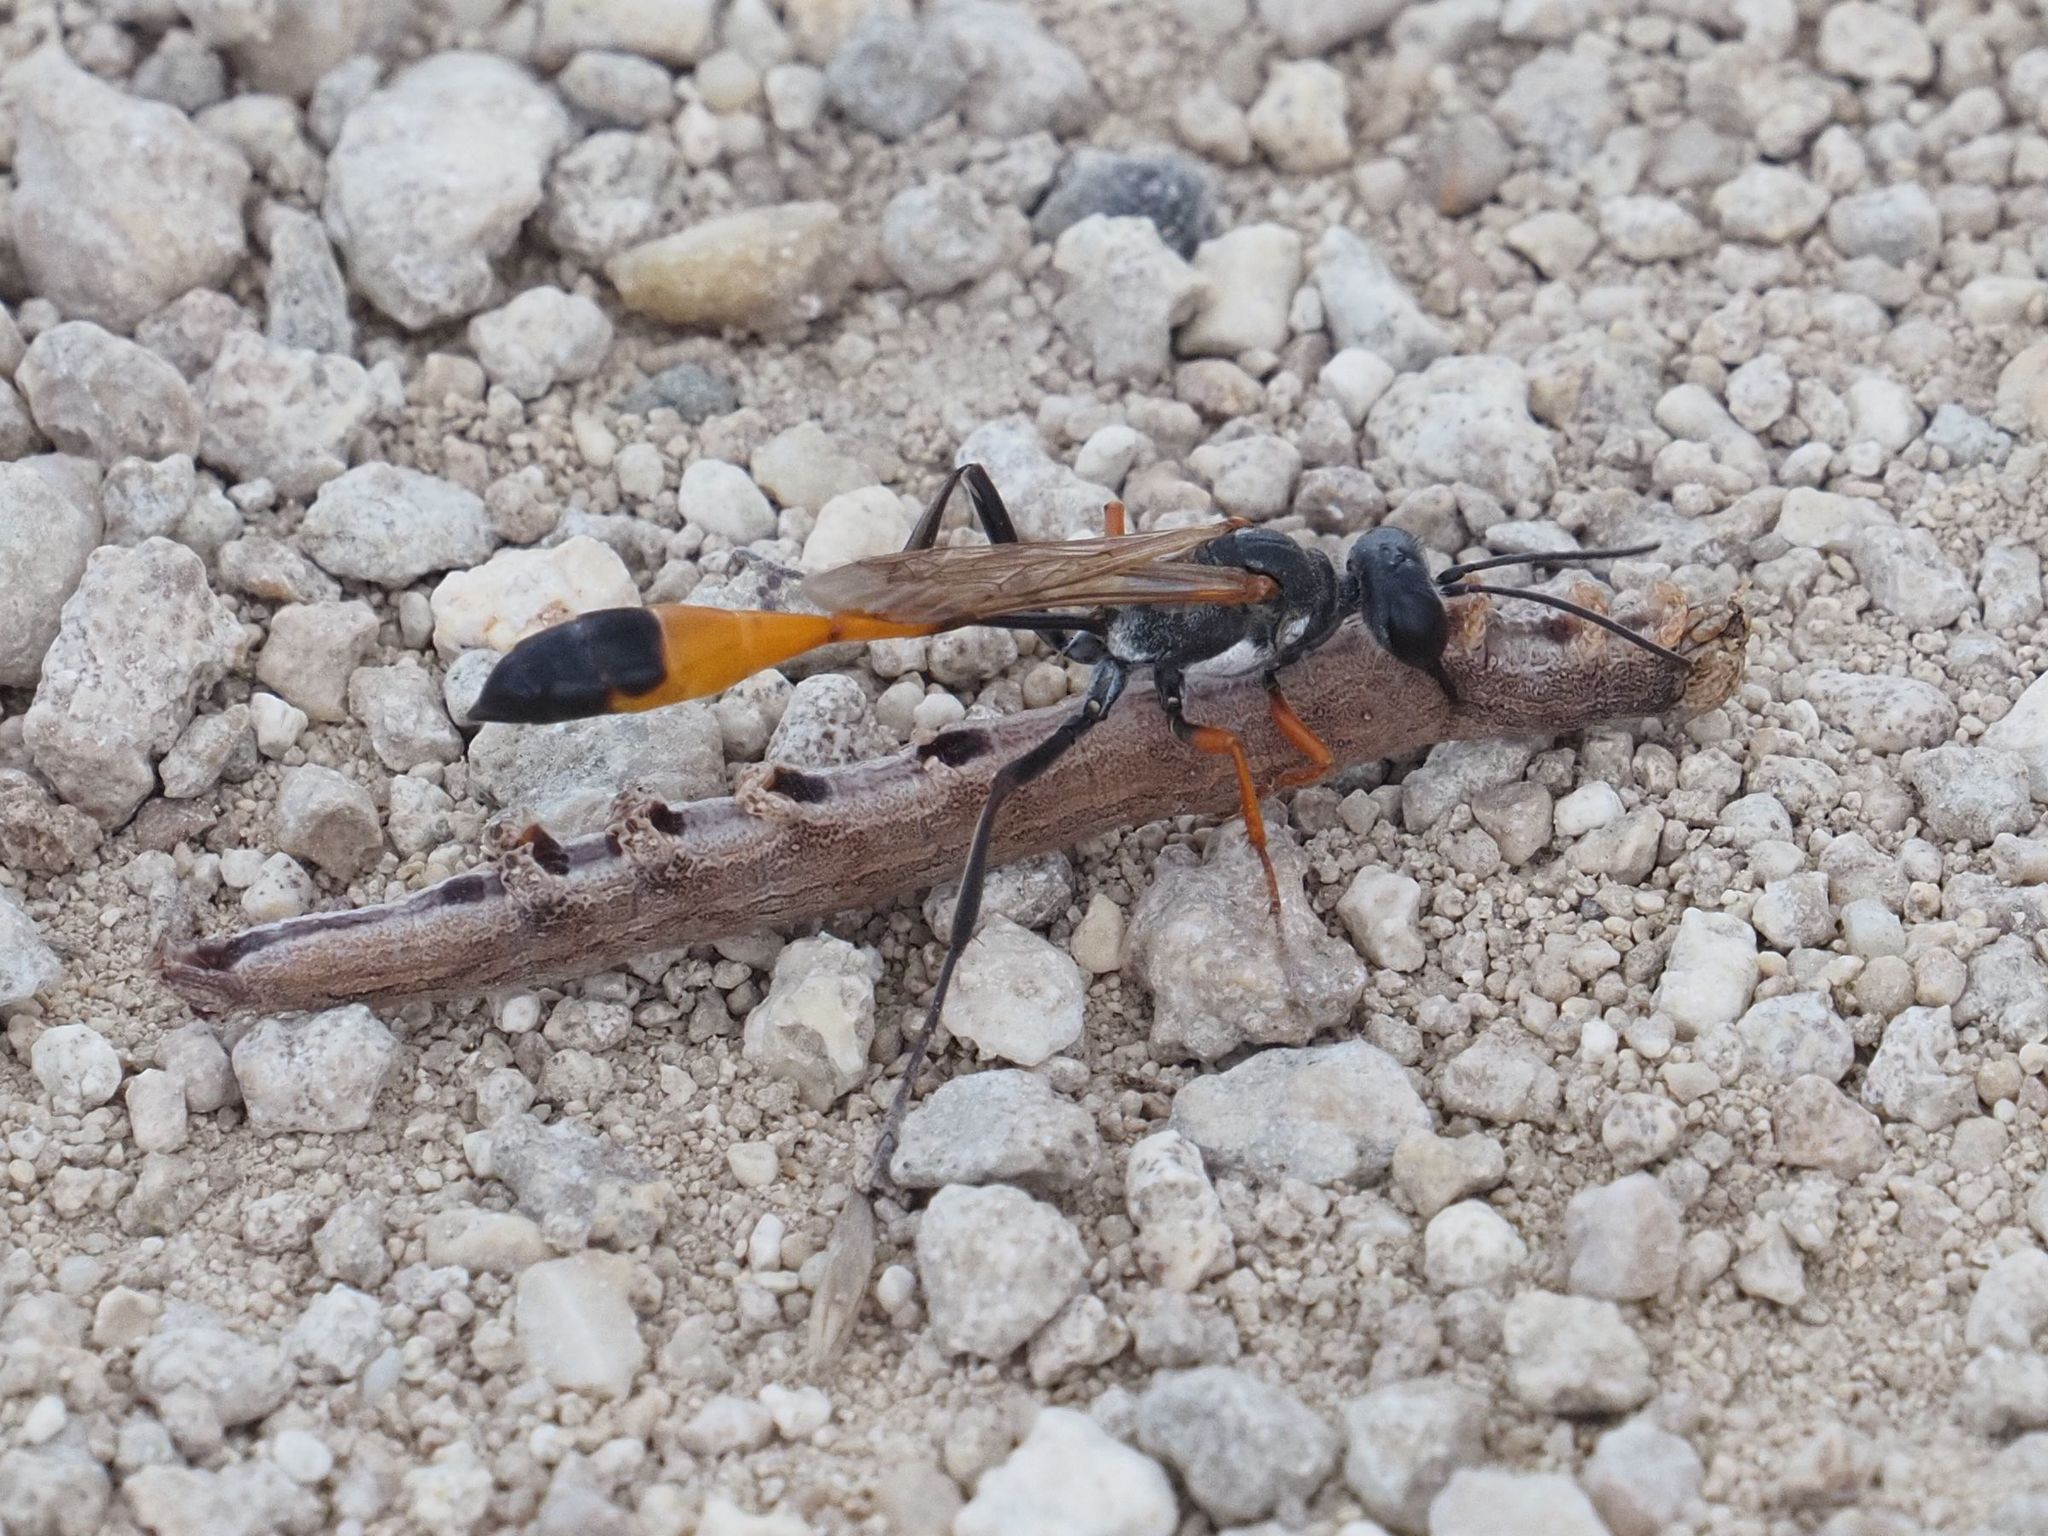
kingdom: Animalia
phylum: Arthropoda
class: Insecta
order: Hymenoptera
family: Sphecidae
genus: Ammophila
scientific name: Ammophila heydeni
